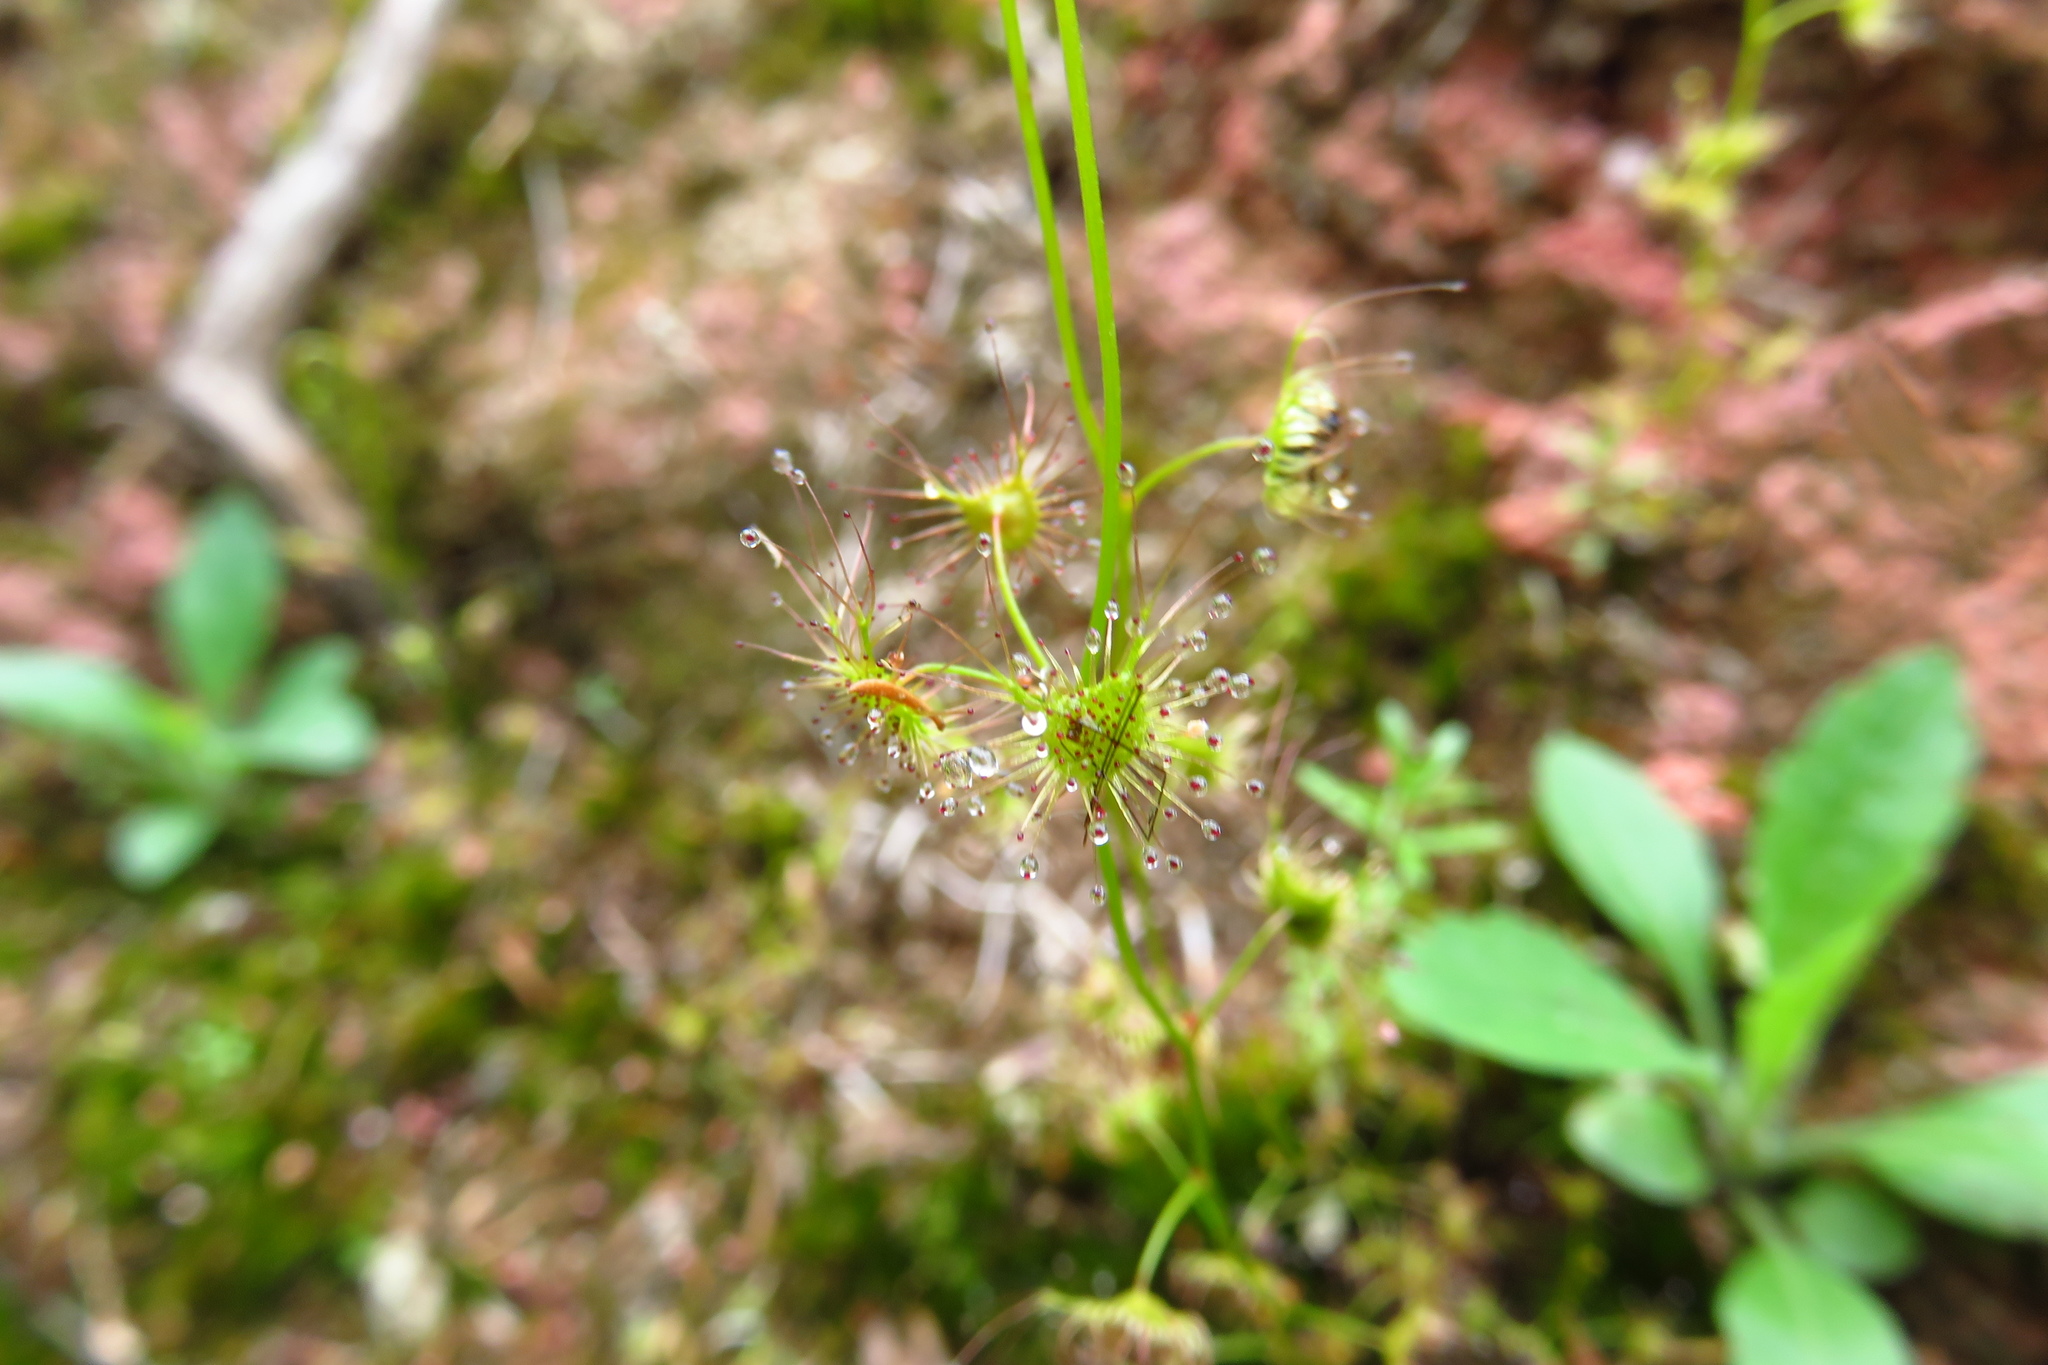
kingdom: Plantae
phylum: Tracheophyta
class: Magnoliopsida
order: Caryophyllales
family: Droseraceae
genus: Drosera
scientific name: Drosera peltata
